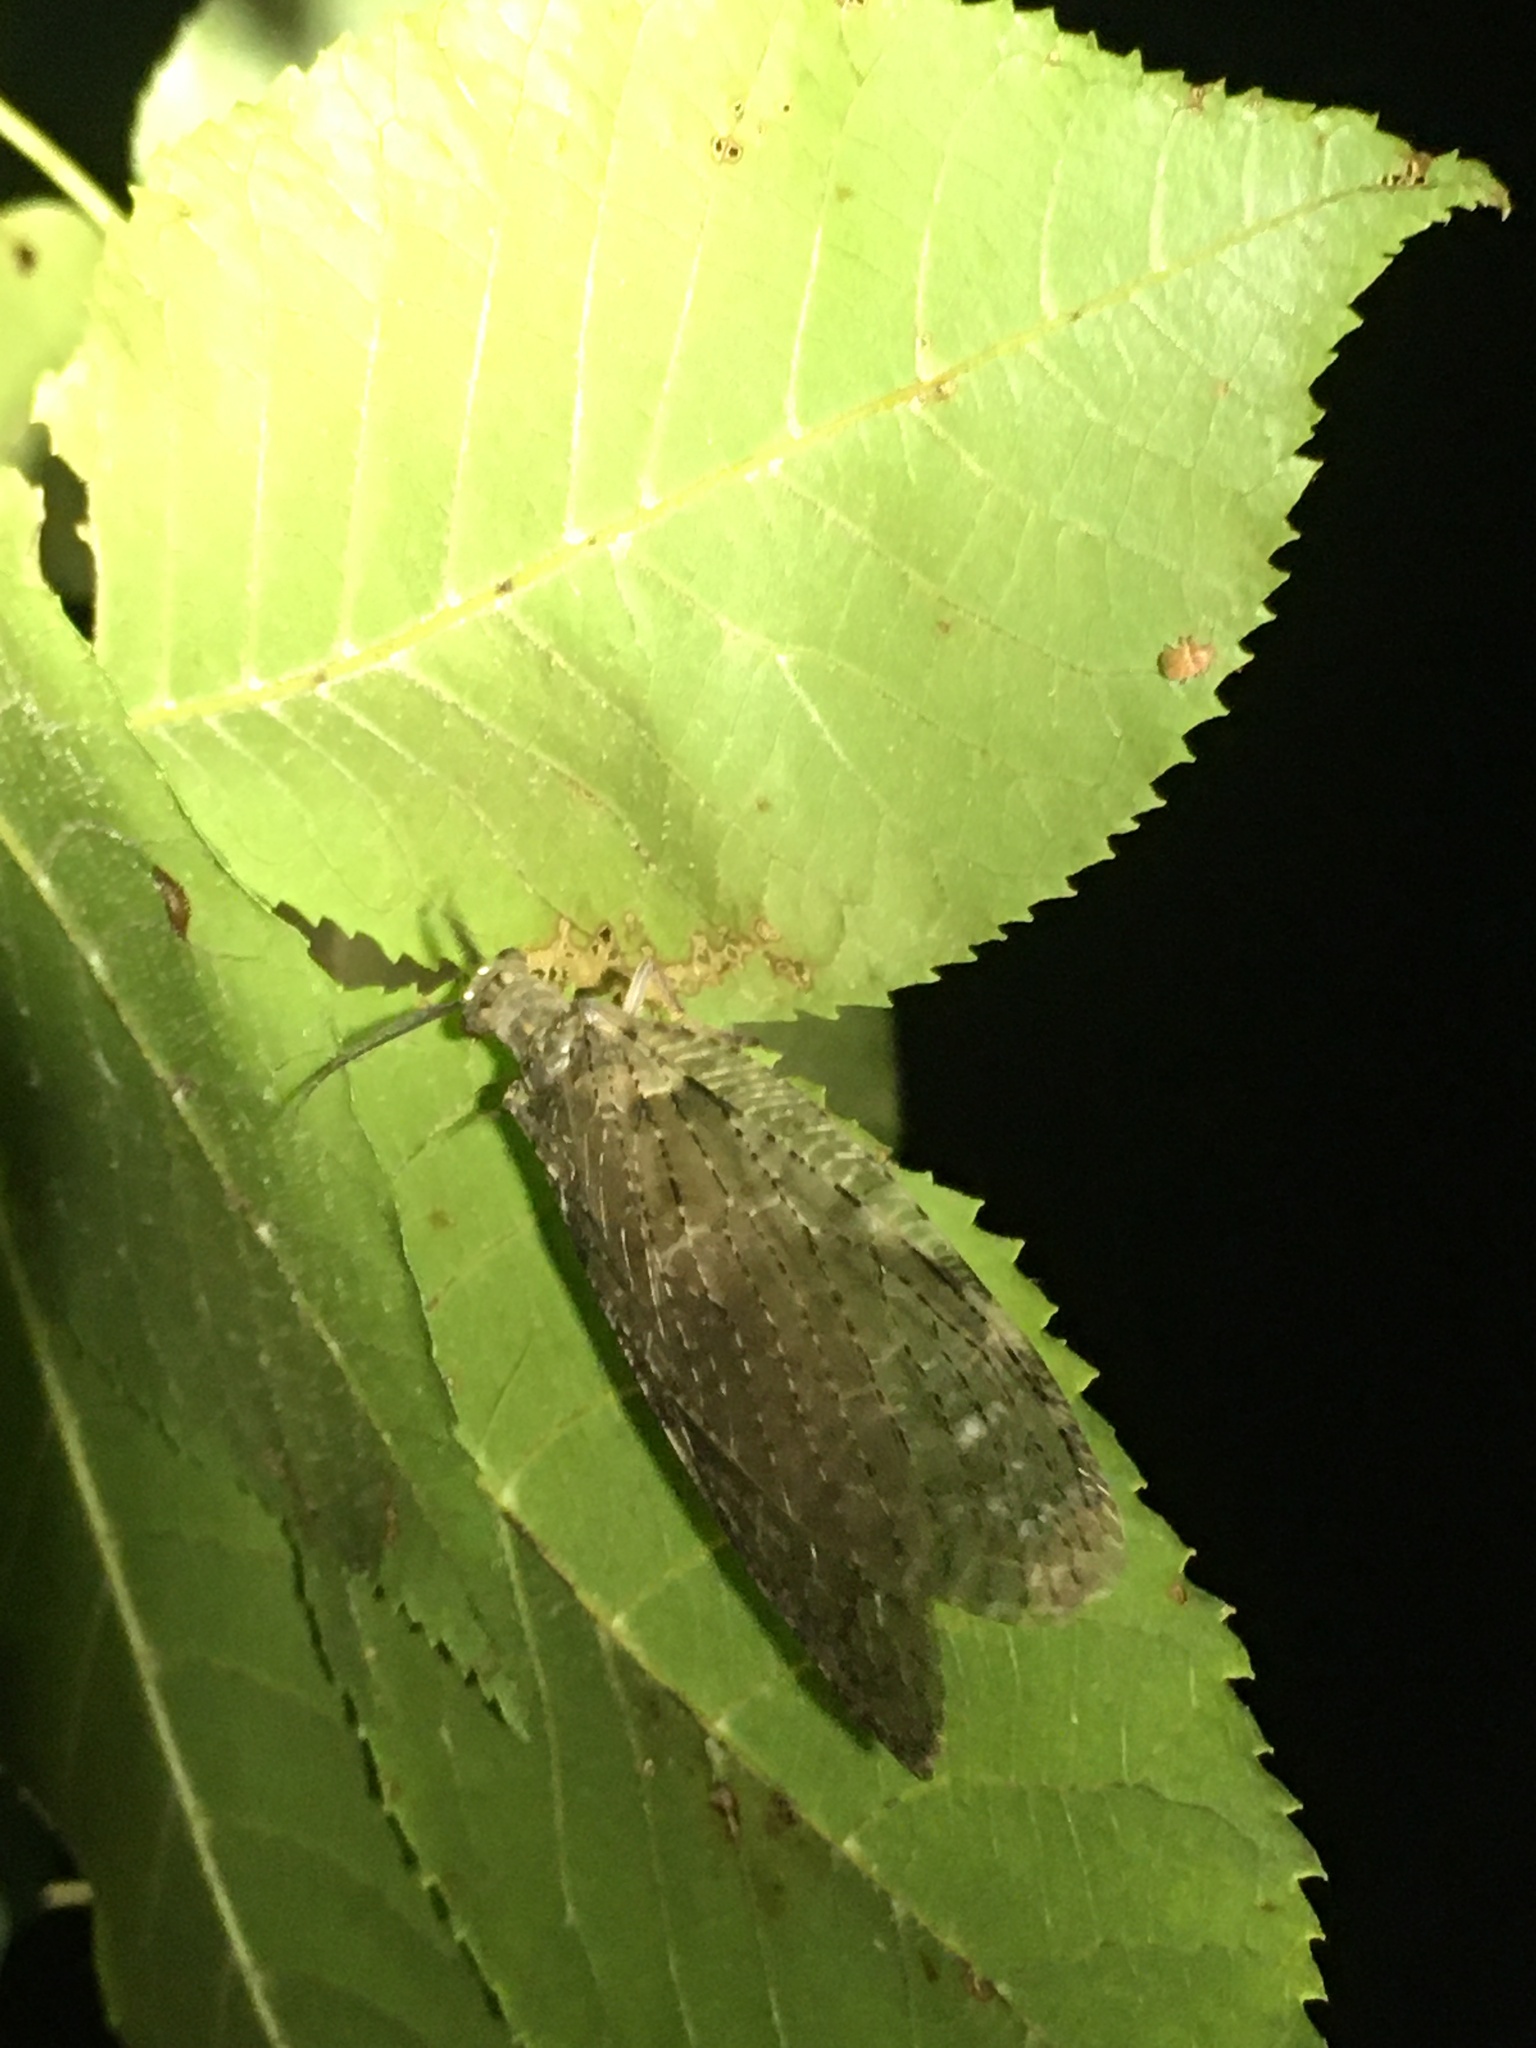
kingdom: Animalia
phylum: Arthropoda
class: Insecta
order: Megaloptera
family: Corydalidae
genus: Chauliodes
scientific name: Chauliodes pectinicornis
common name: Summer fishfly
